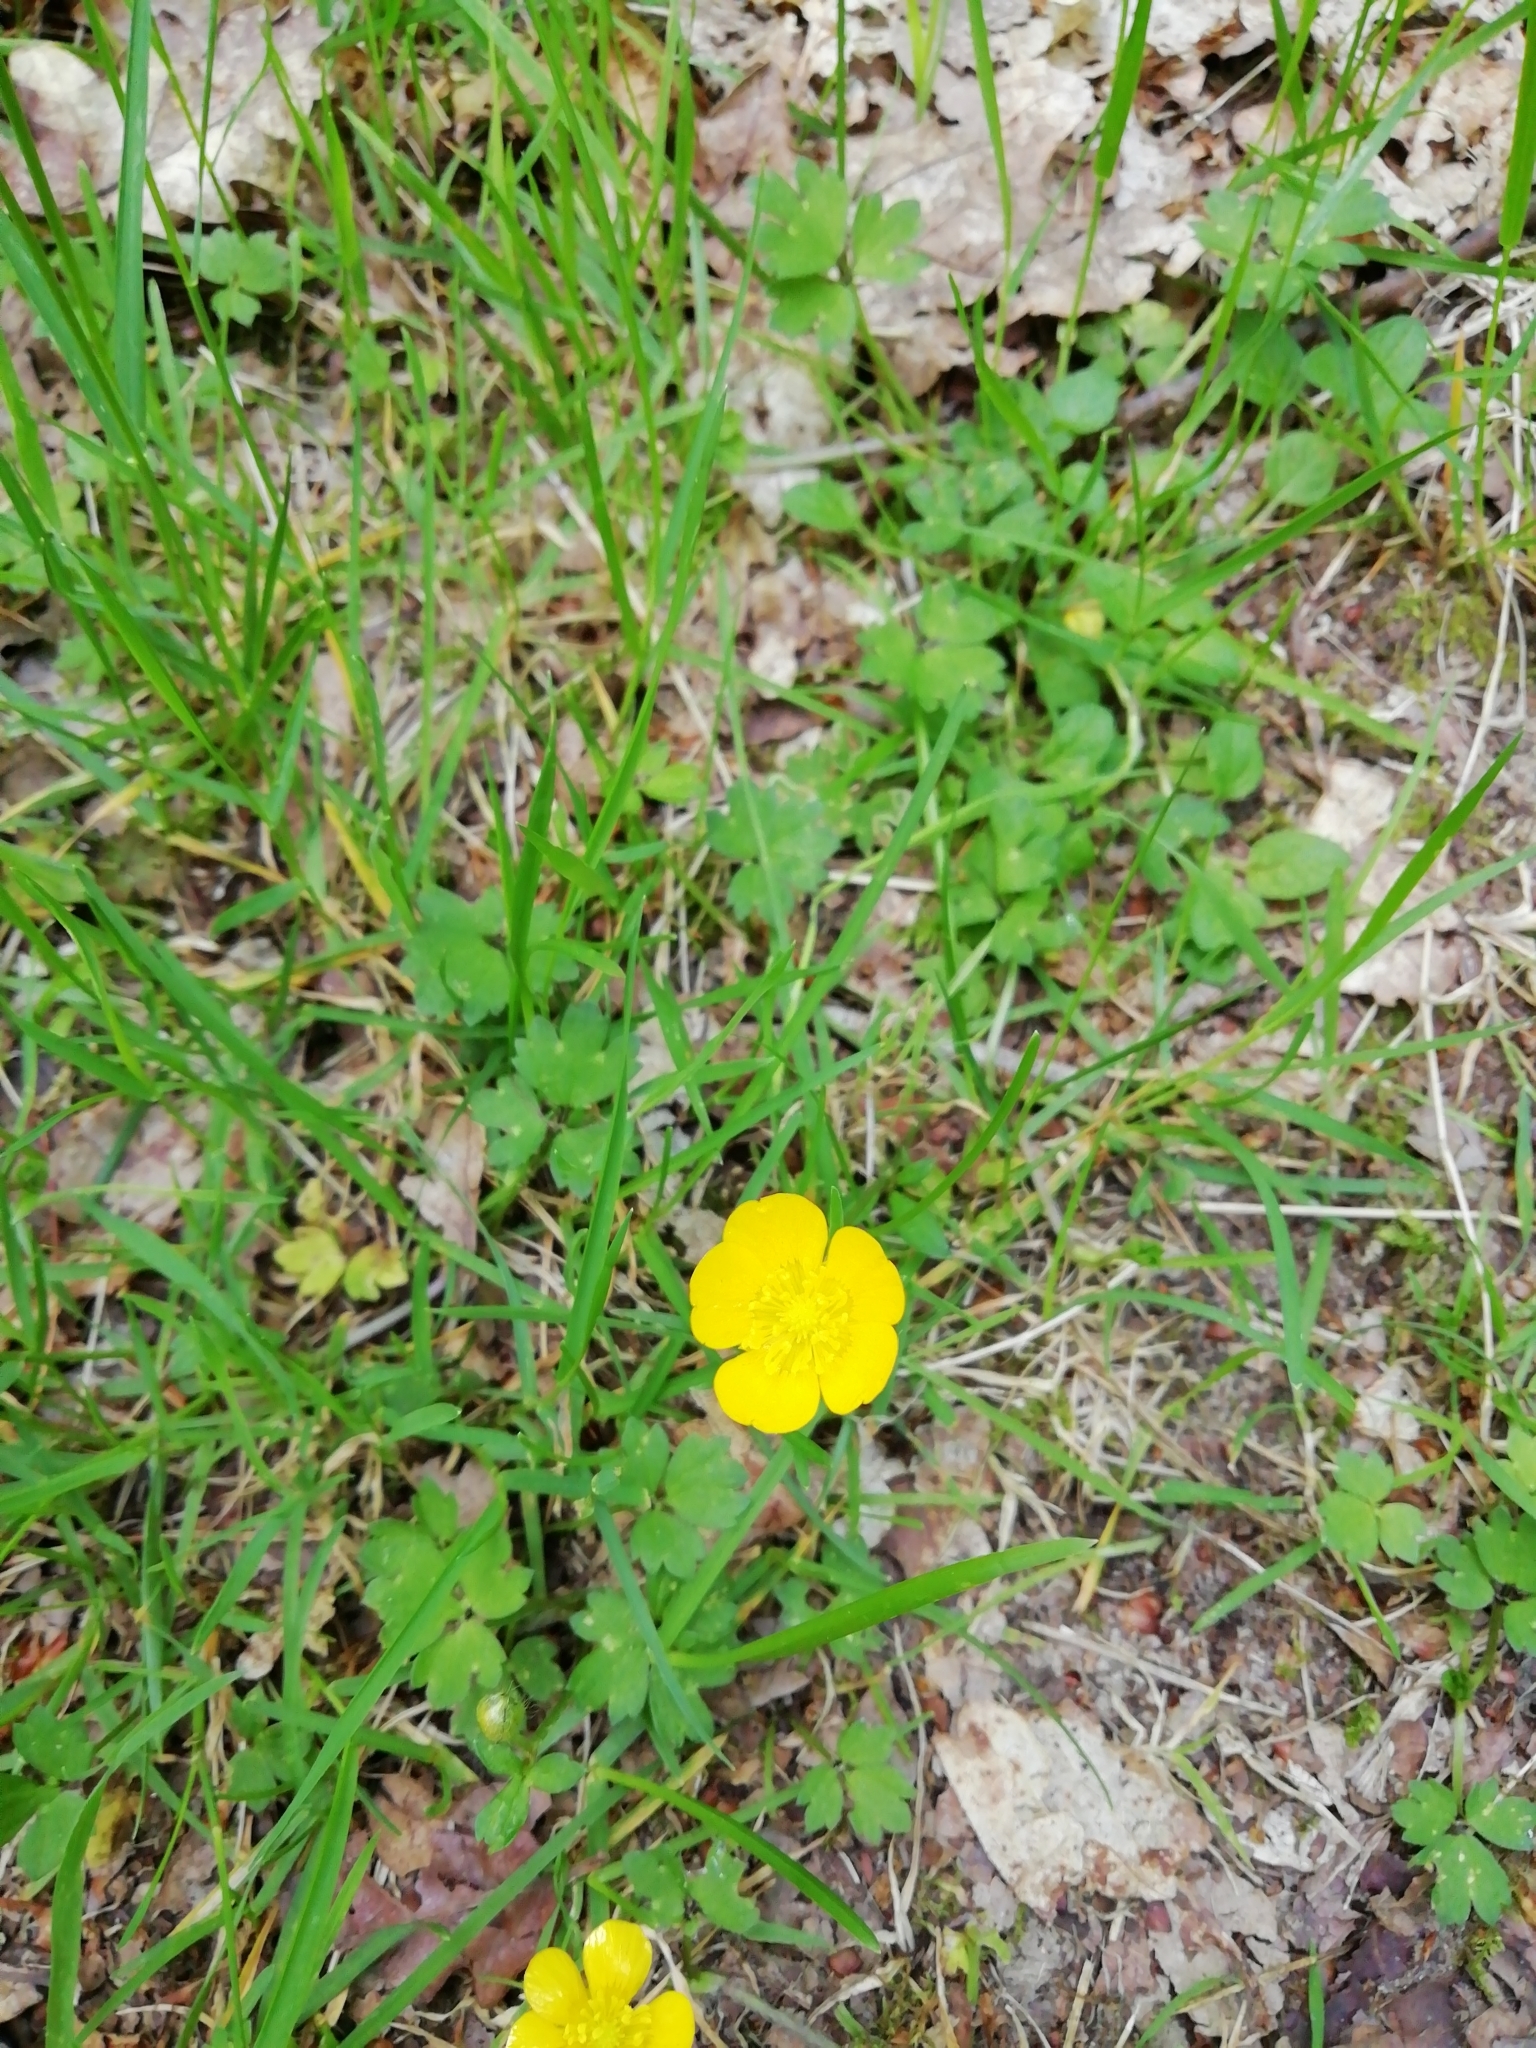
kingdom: Plantae
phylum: Tracheophyta
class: Magnoliopsida
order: Ranunculales
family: Ranunculaceae
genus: Ranunculus
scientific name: Ranunculus repens
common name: Creeping buttercup
